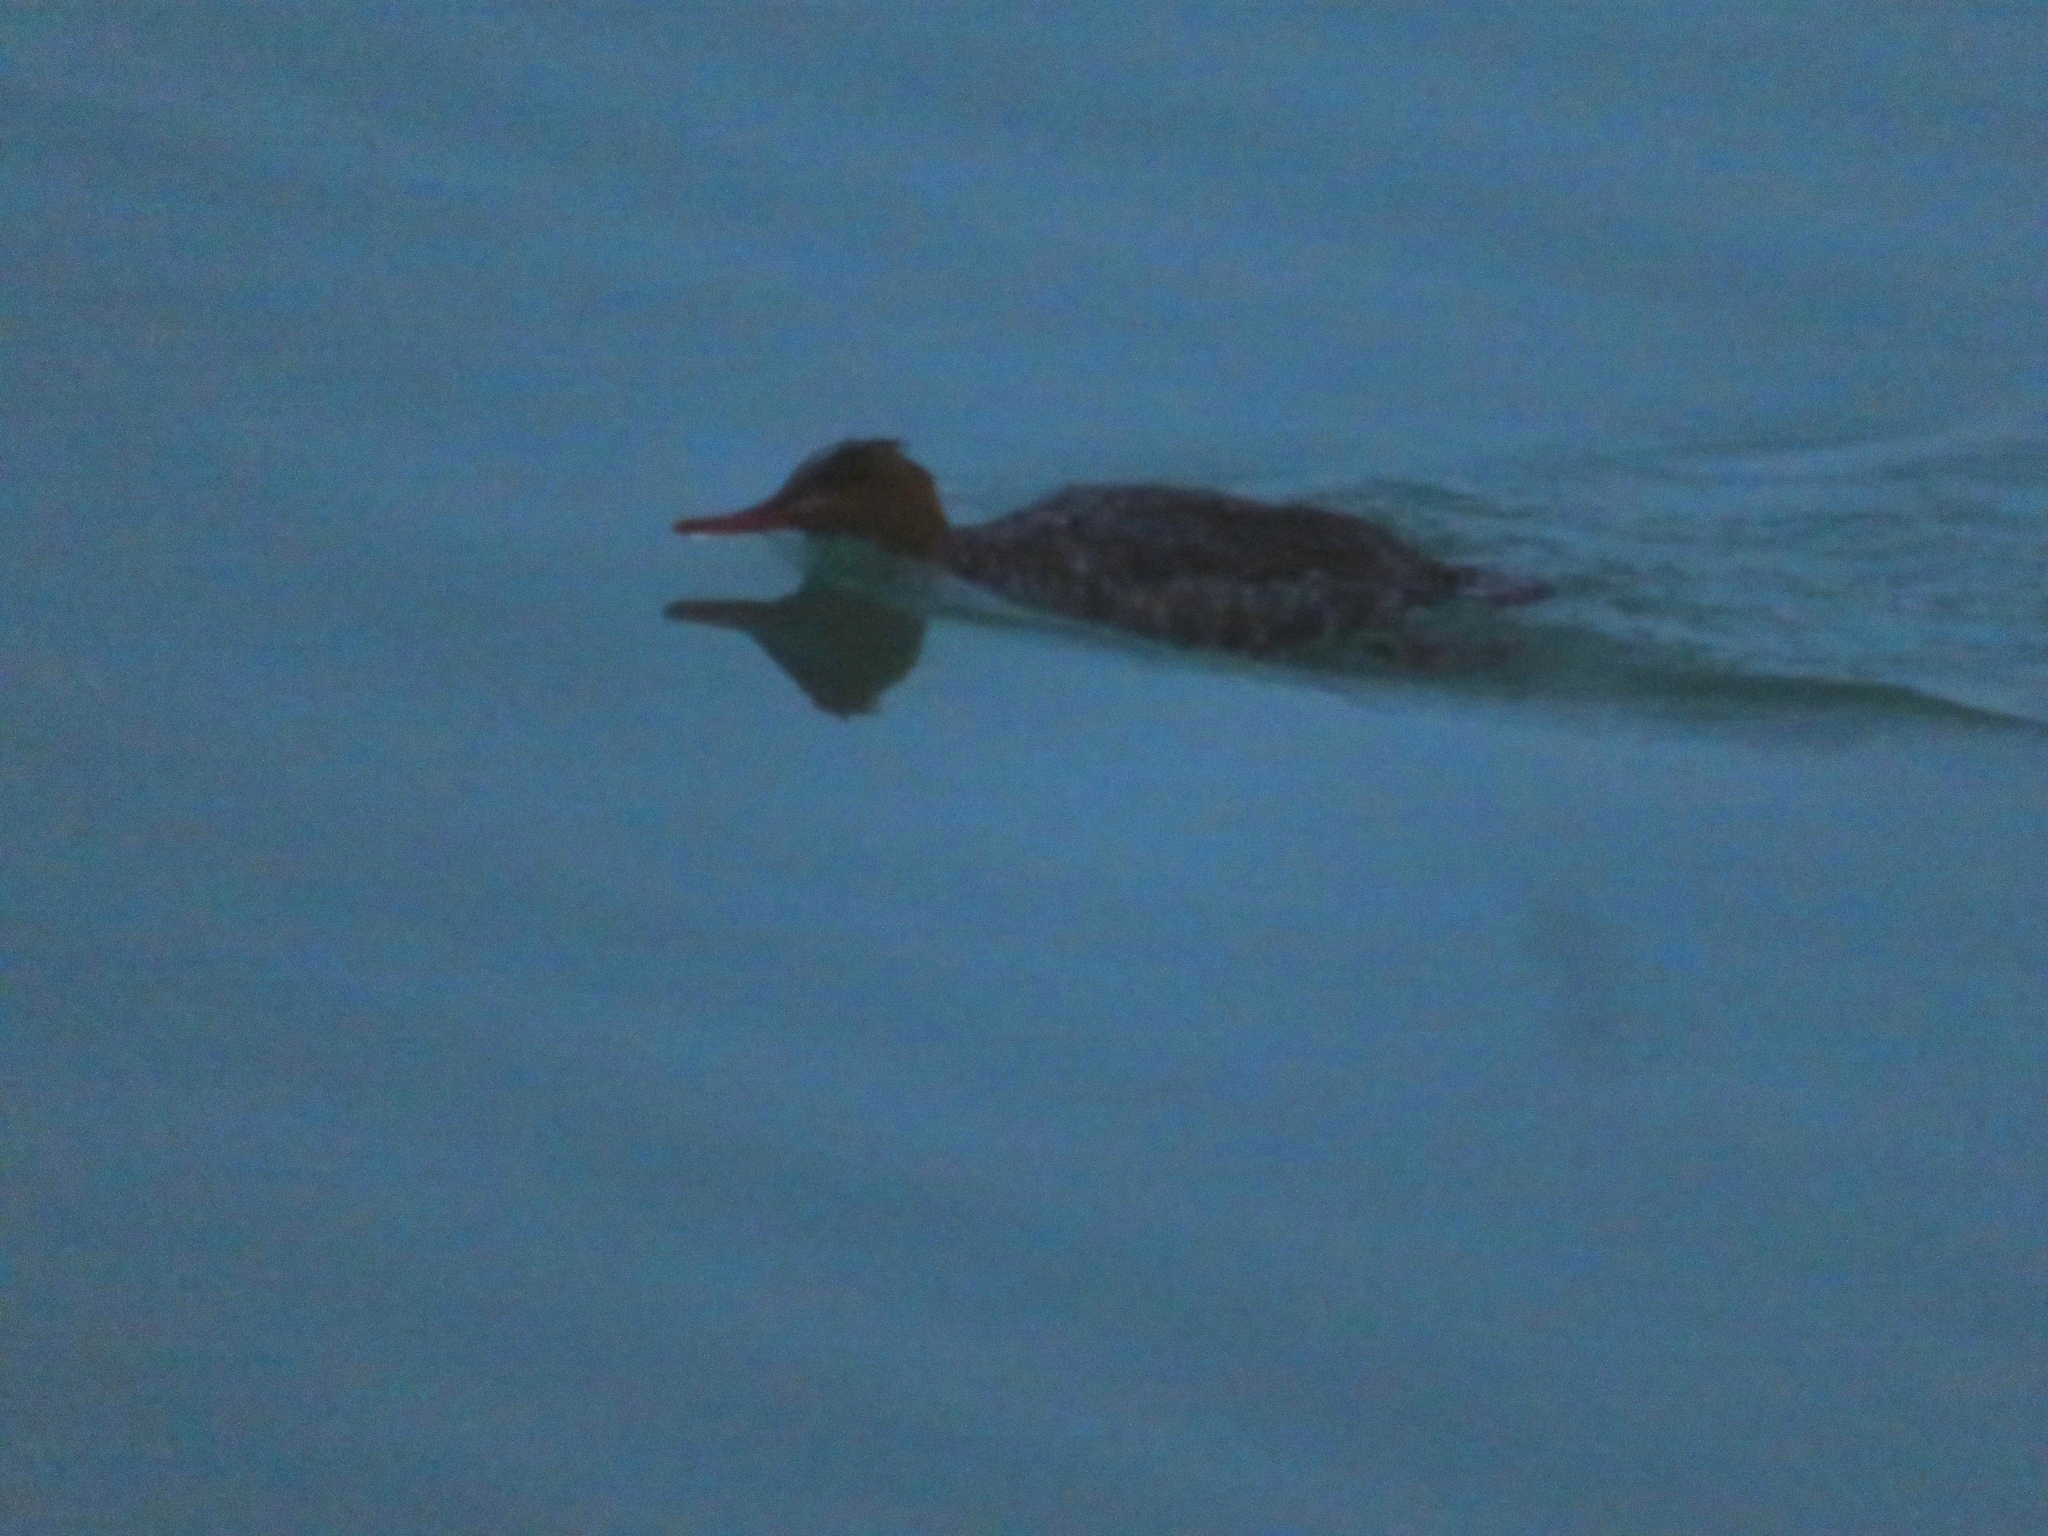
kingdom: Animalia
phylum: Chordata
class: Aves
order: Anseriformes
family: Anatidae
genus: Mergus
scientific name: Mergus serrator
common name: Red-breasted merganser
